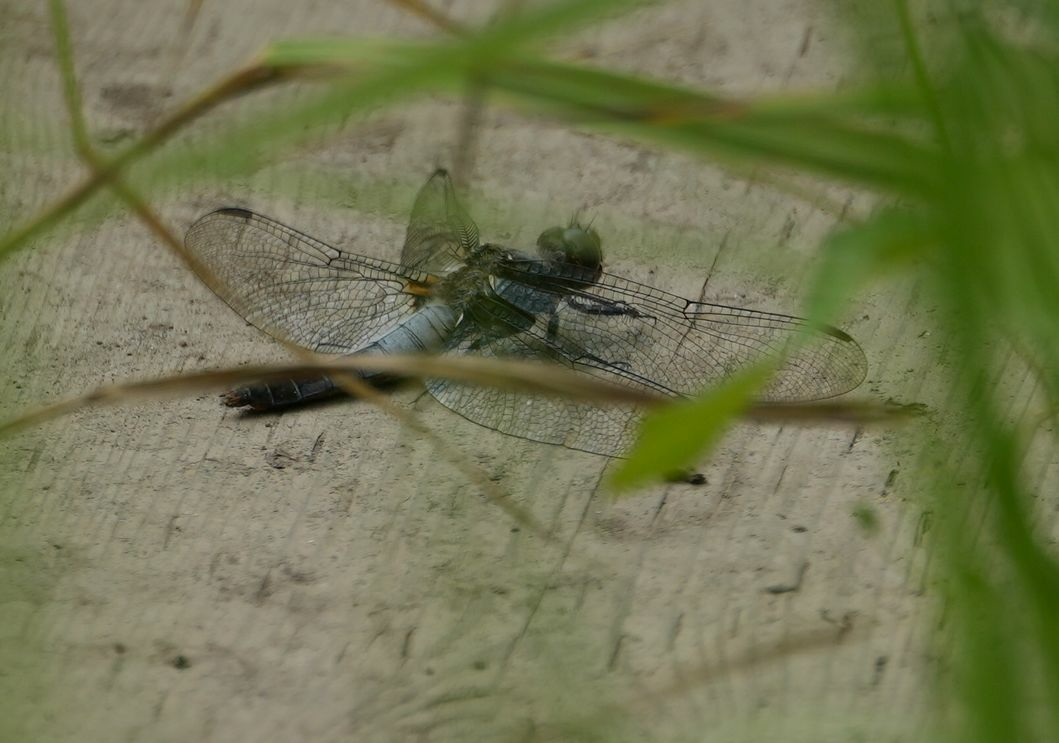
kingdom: Animalia
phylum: Arthropoda
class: Insecta
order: Odonata
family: Libellulidae
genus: Ladona
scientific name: Ladona julia
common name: Chalk-fronted corporal
